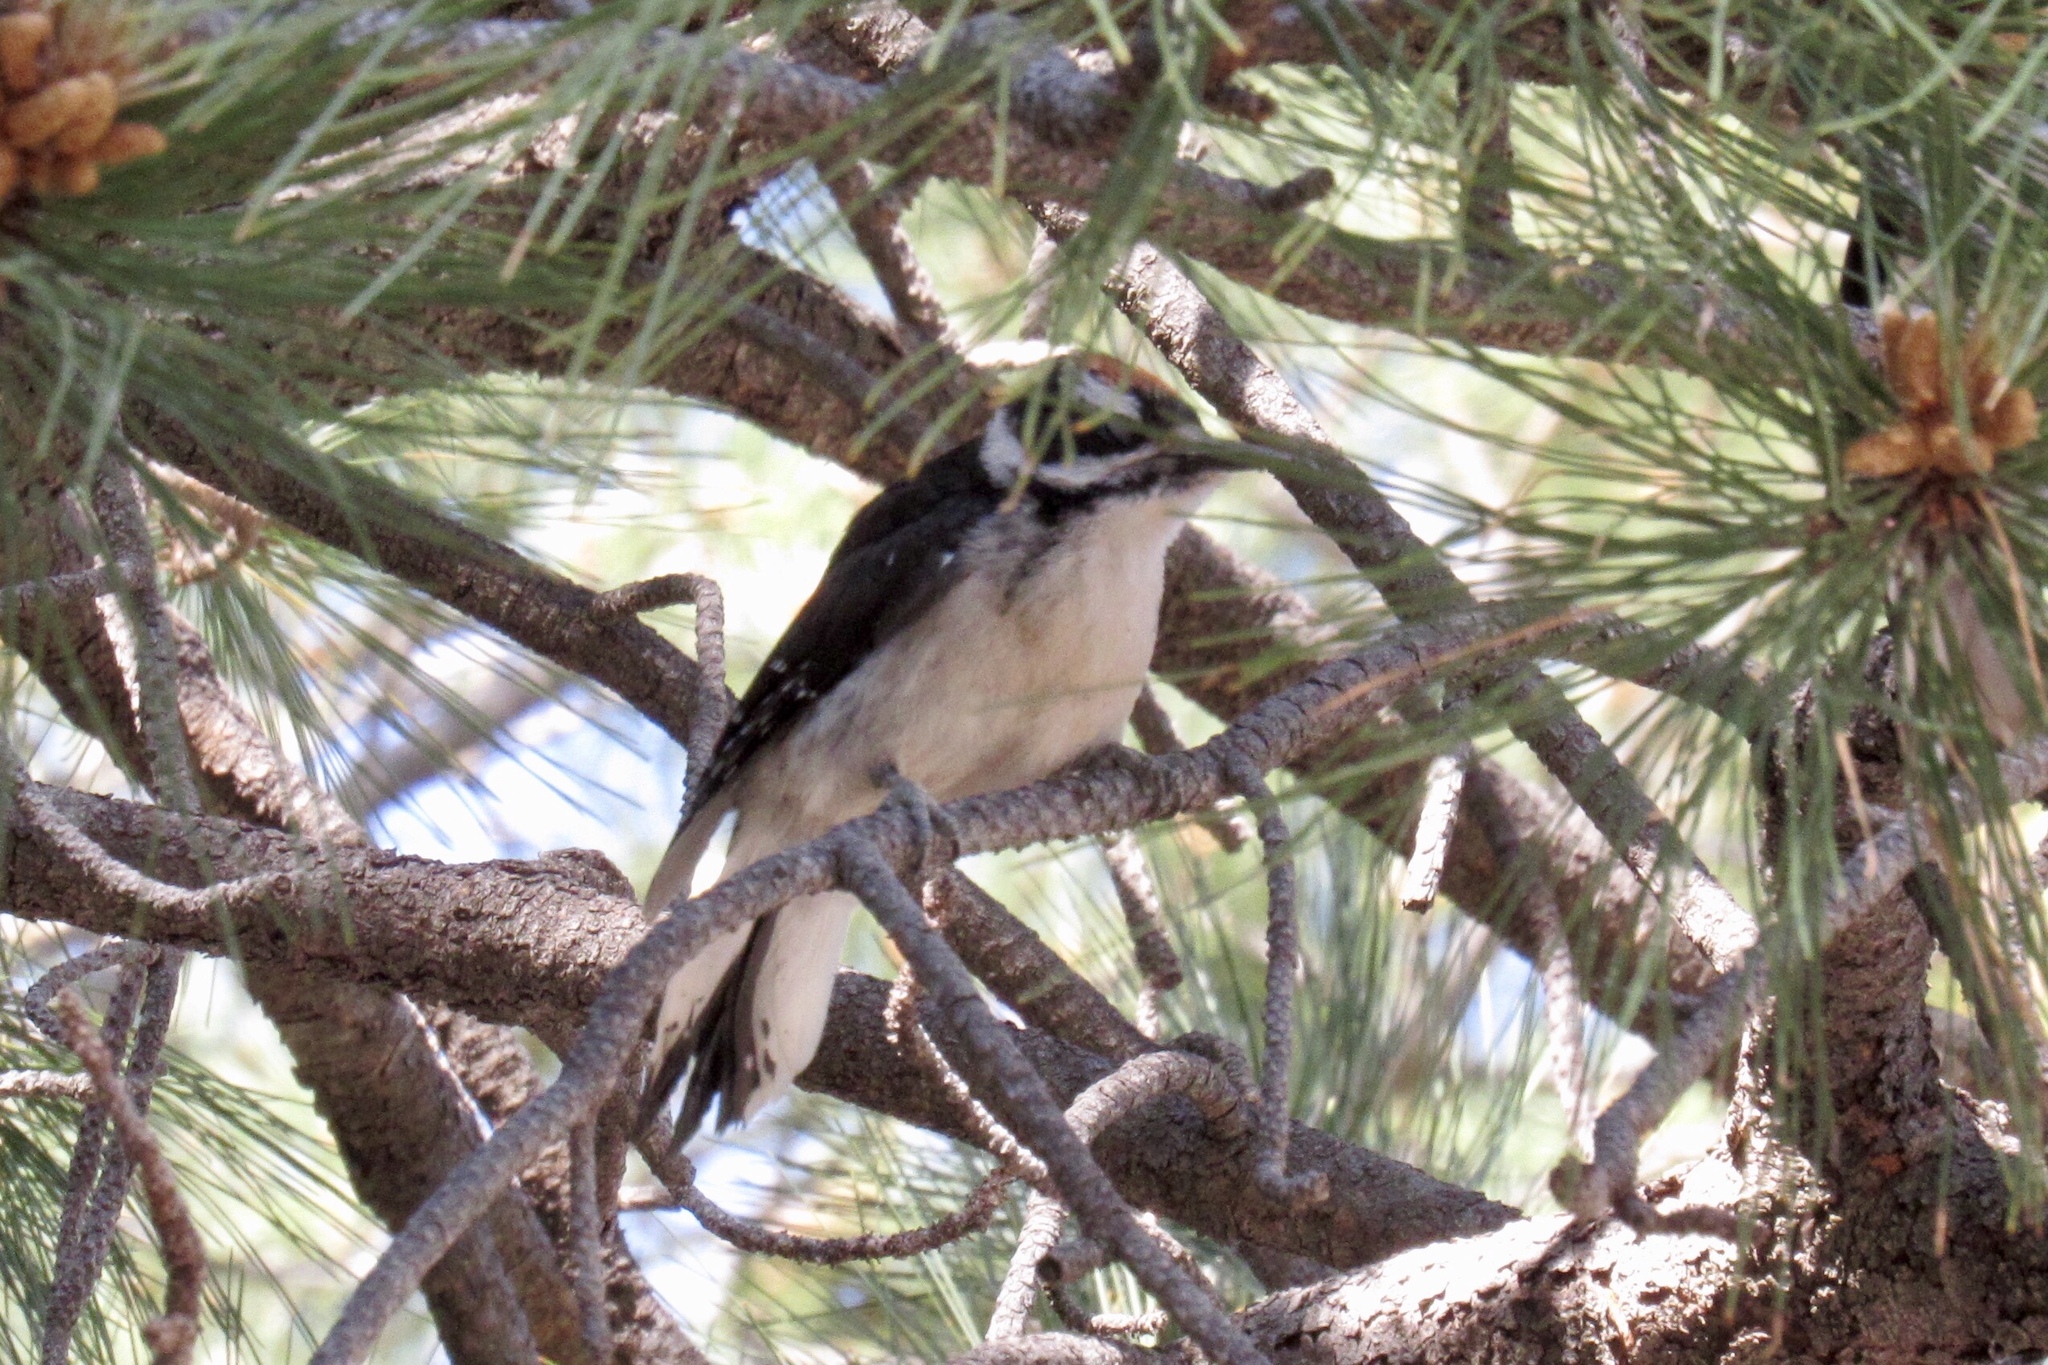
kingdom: Animalia
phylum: Chordata
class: Aves
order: Piciformes
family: Picidae
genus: Leuconotopicus
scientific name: Leuconotopicus villosus
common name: Hairy woodpecker
